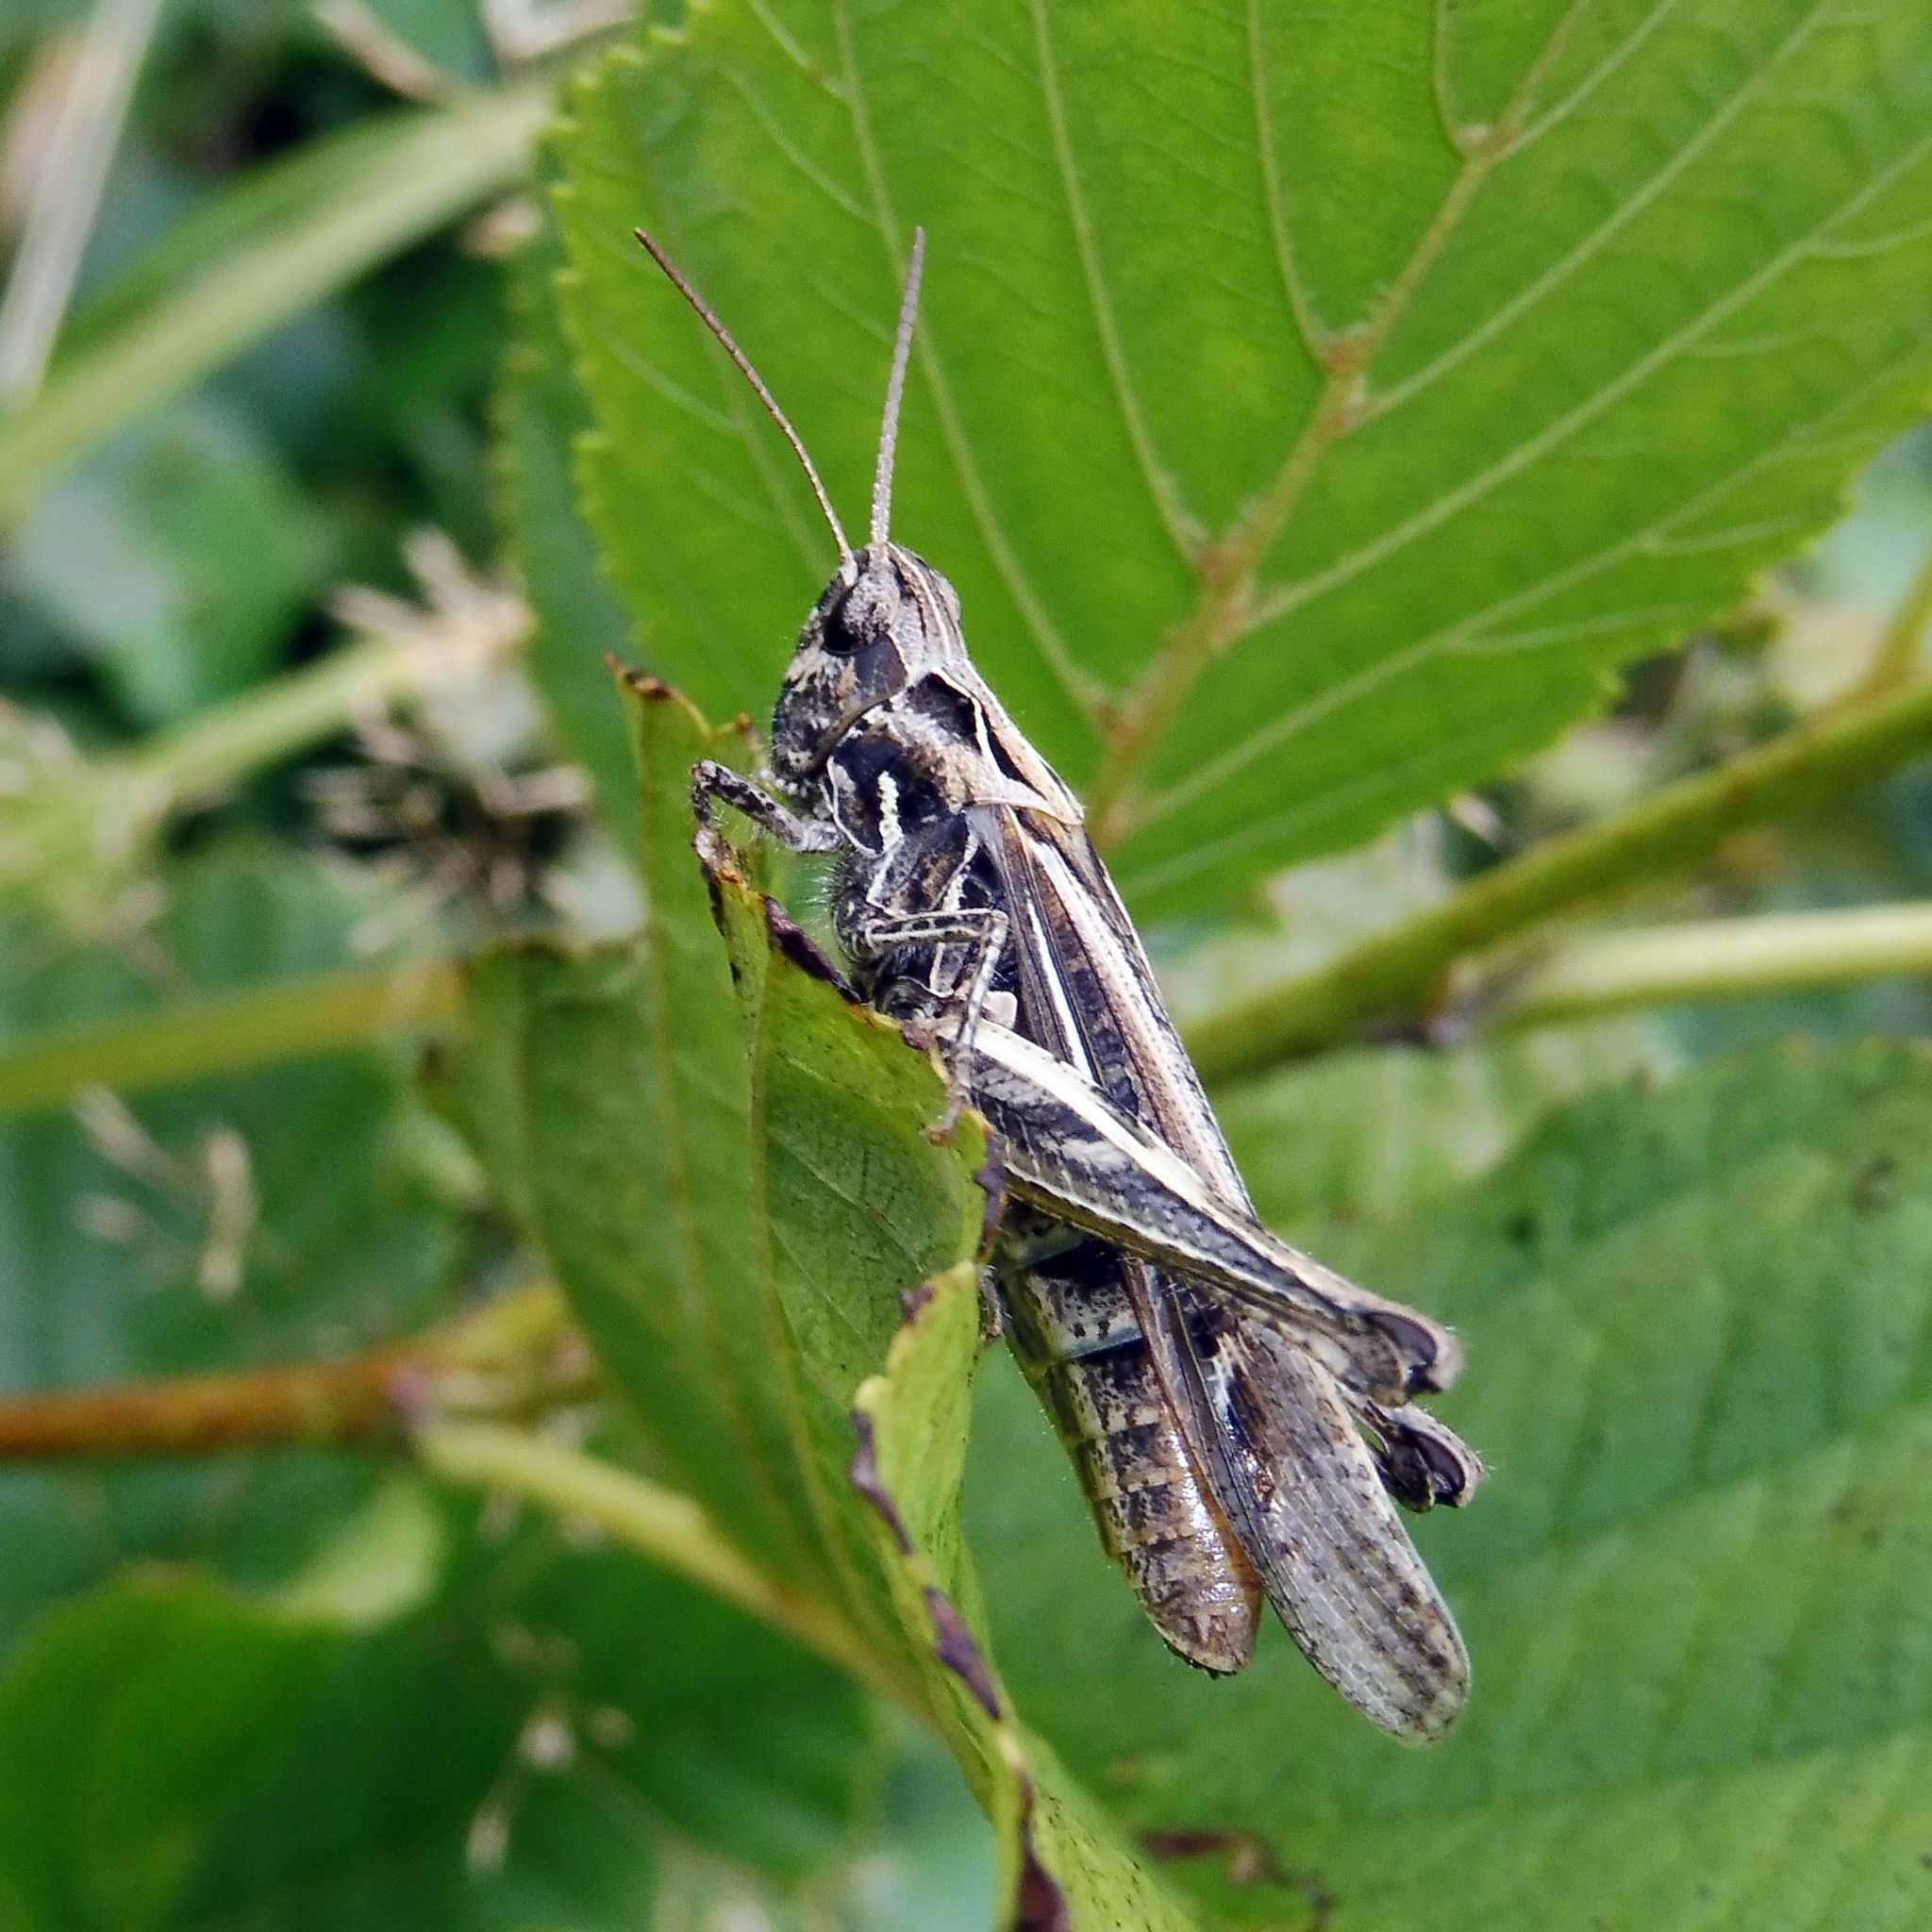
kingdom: Animalia
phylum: Arthropoda
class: Insecta
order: Orthoptera
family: Acrididae
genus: Chorthippus
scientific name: Chorthippus brunneus
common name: Field grasshopper
